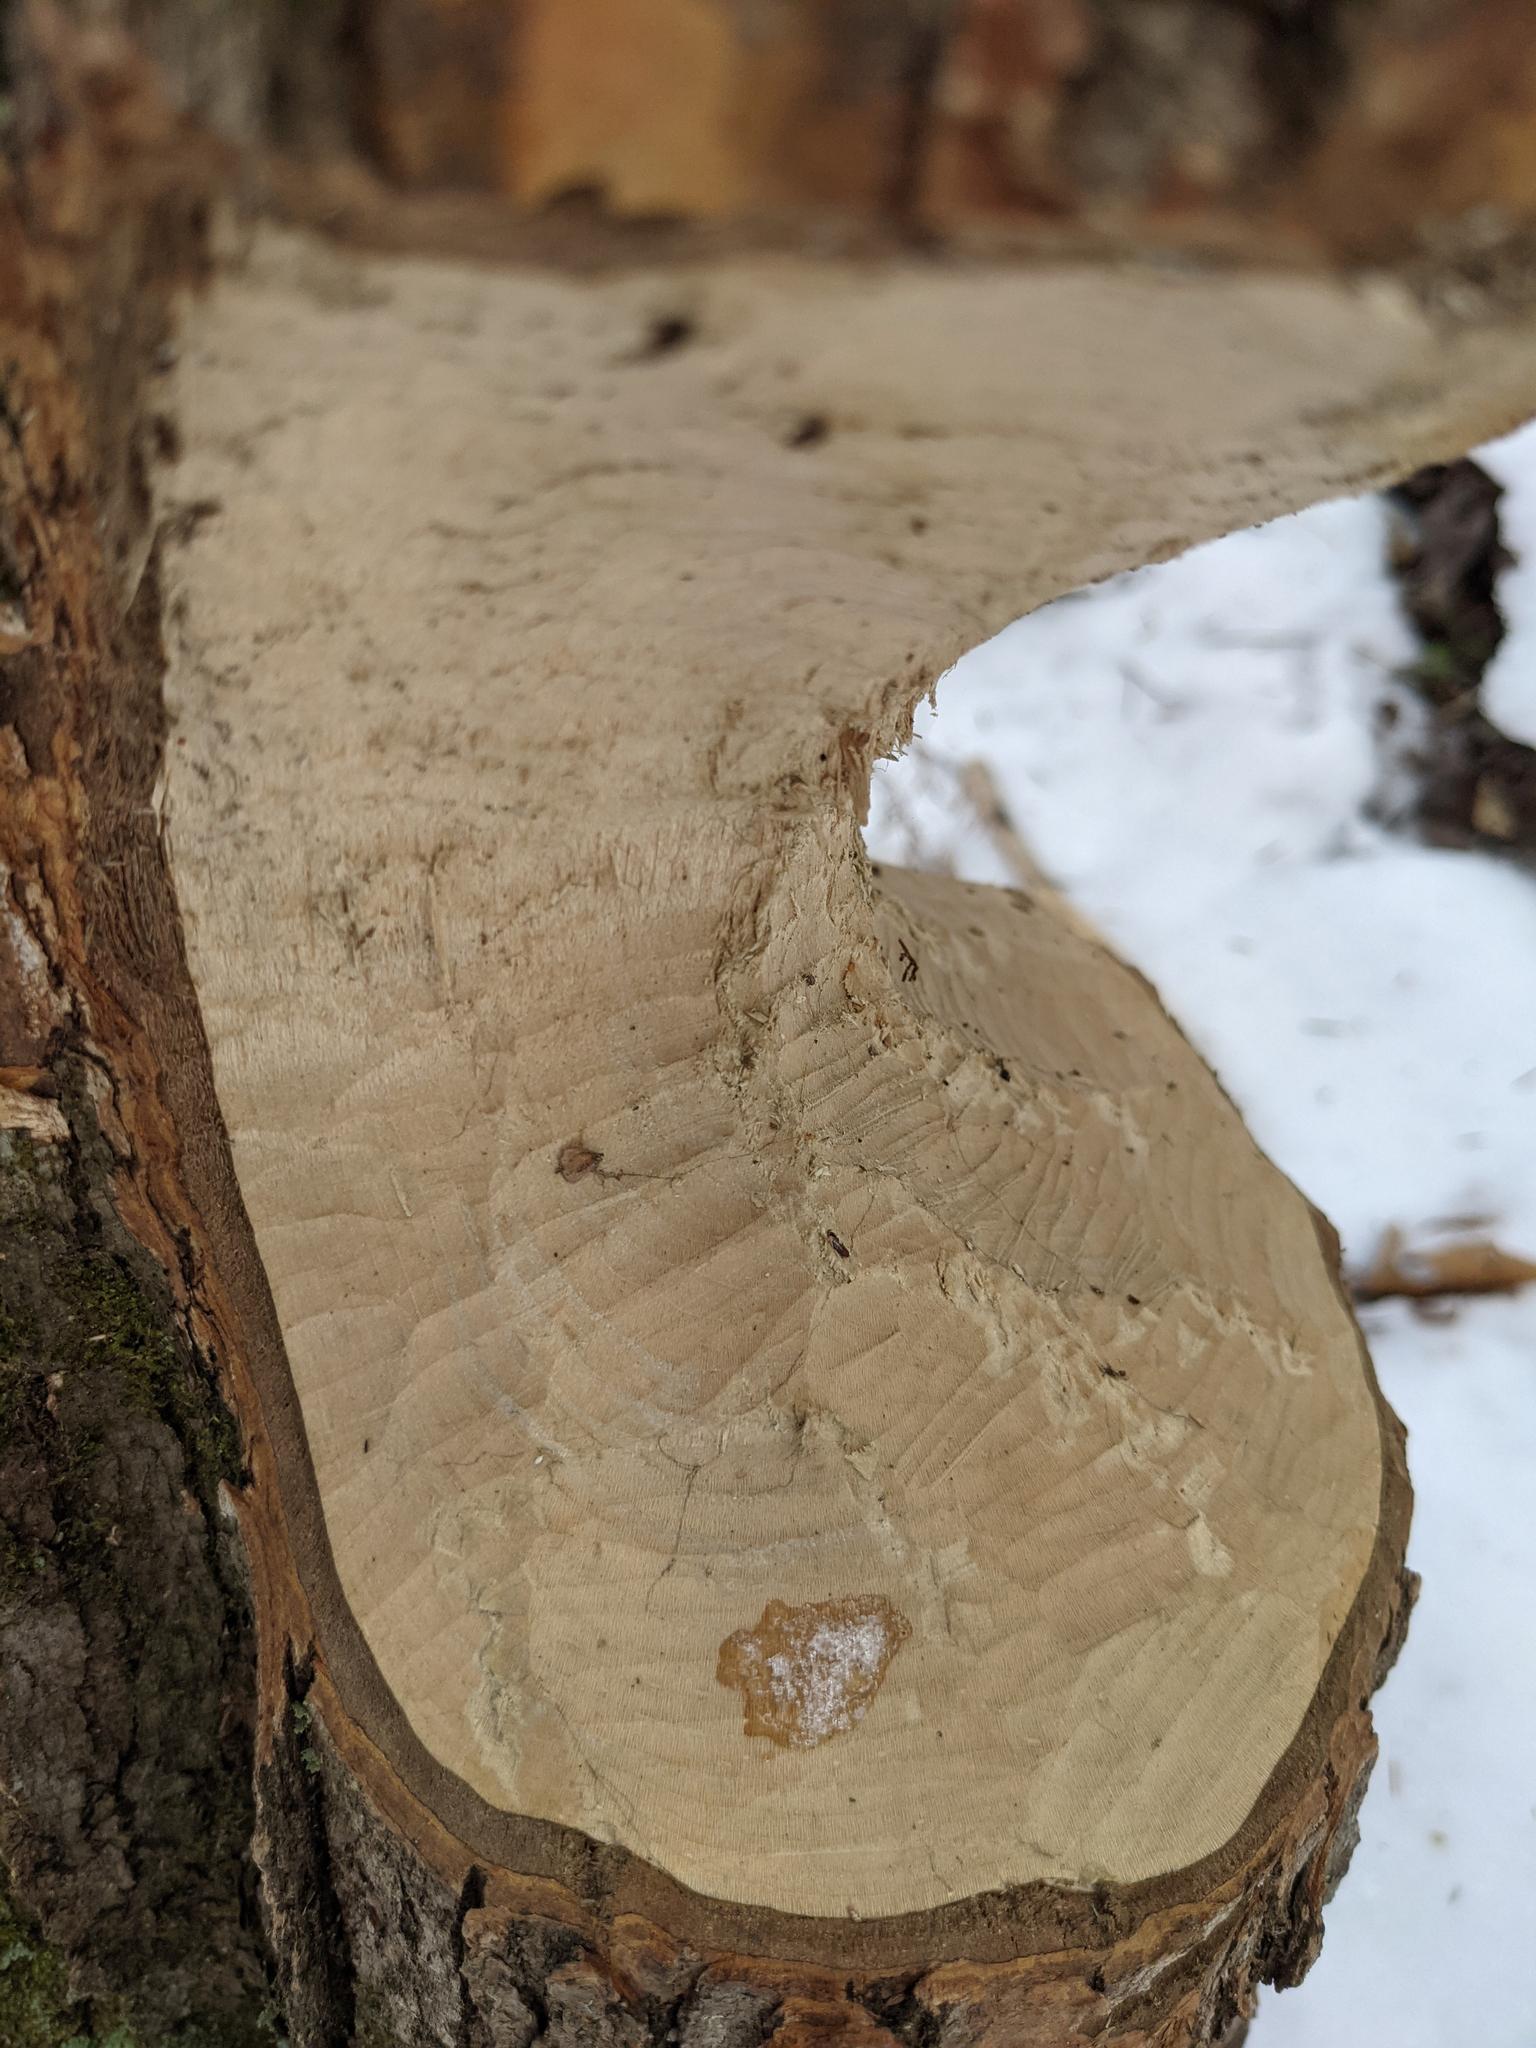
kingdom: Animalia
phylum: Chordata
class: Mammalia
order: Rodentia
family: Castoridae
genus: Castor
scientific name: Castor canadensis
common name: American beaver
